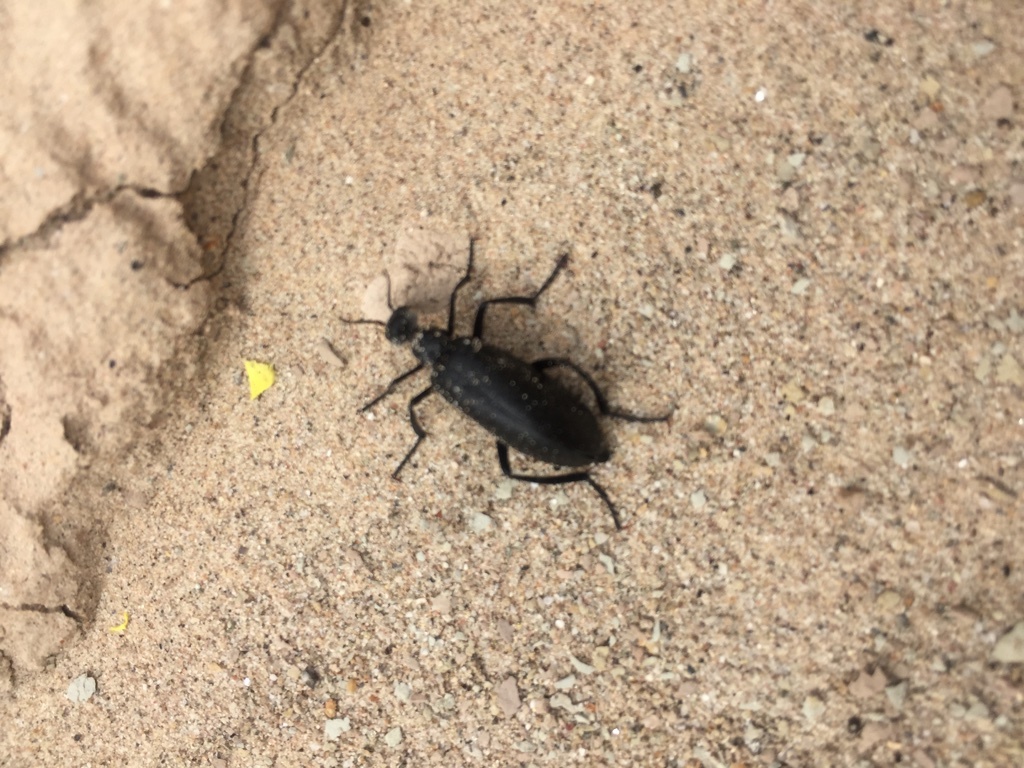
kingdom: Animalia
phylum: Arthropoda
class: Insecta
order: Coleoptera
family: Meloidae
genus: Phodaga
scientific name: Phodaga alticeps
